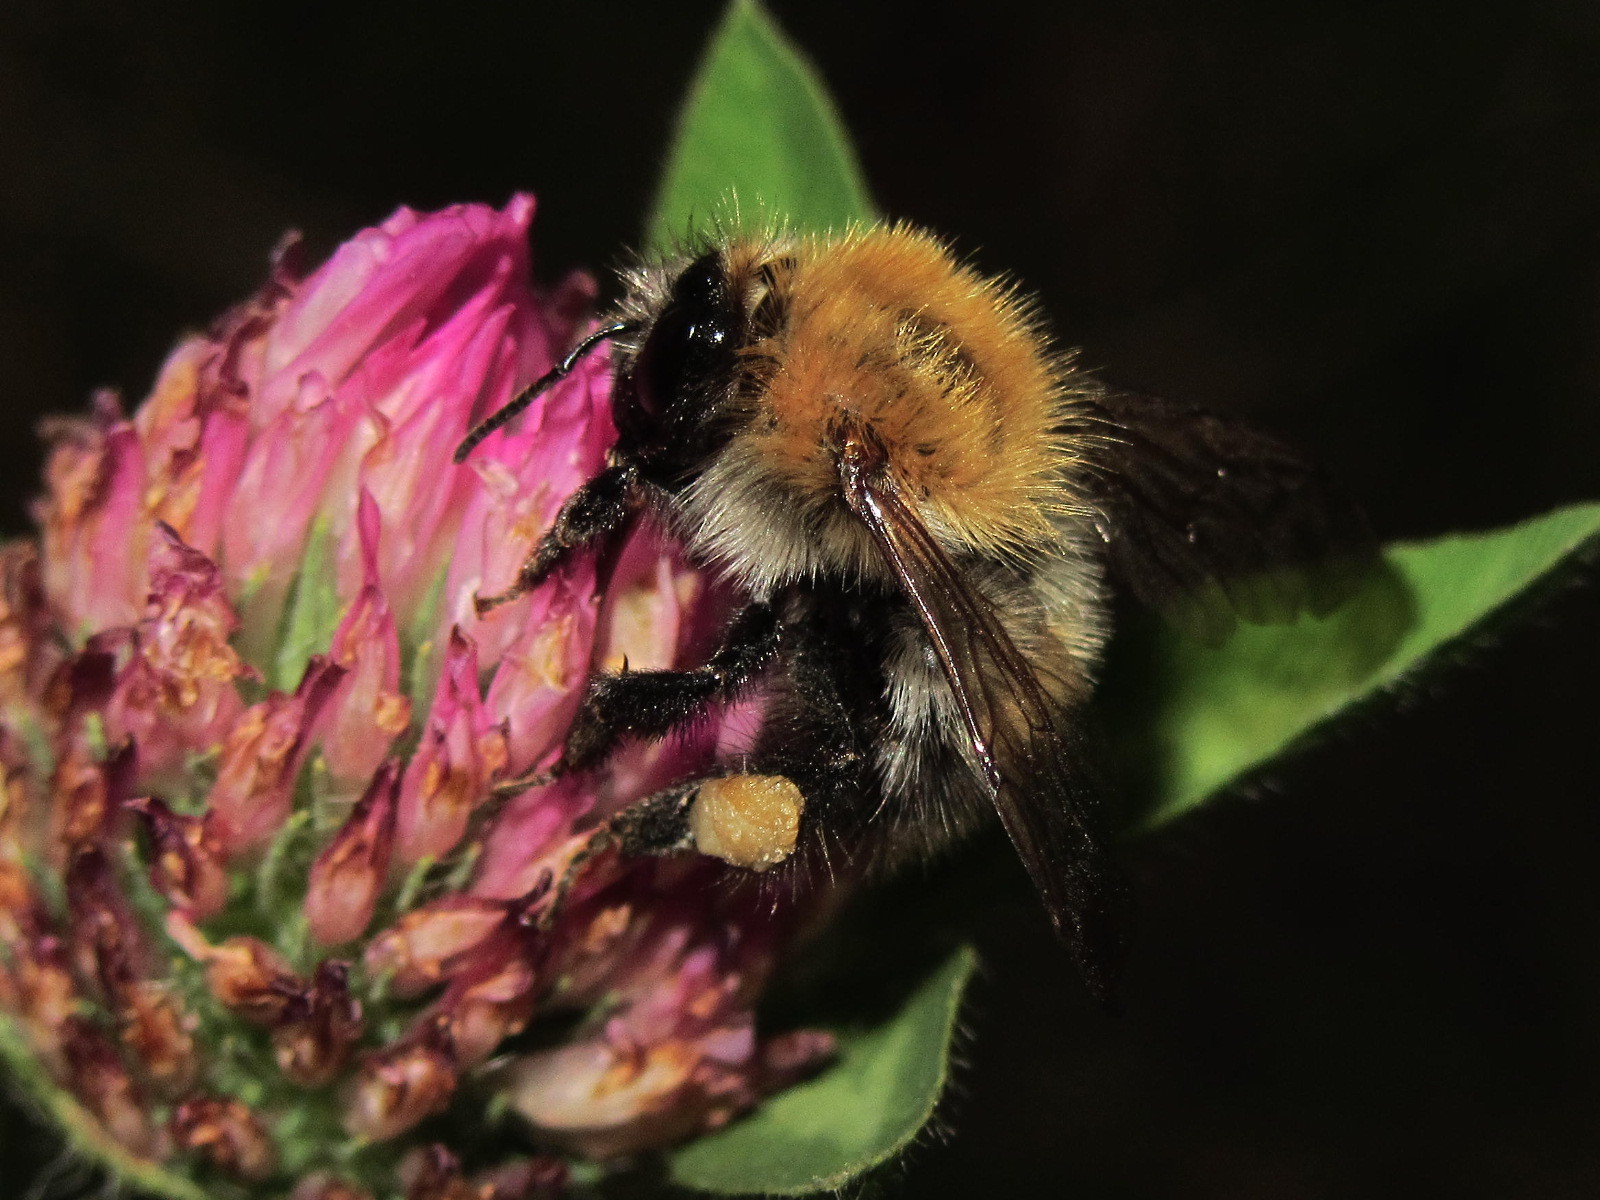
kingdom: Animalia
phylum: Arthropoda
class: Insecta
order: Hymenoptera
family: Apidae
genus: Bombus
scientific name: Bombus pascuorum
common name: Common carder bee
